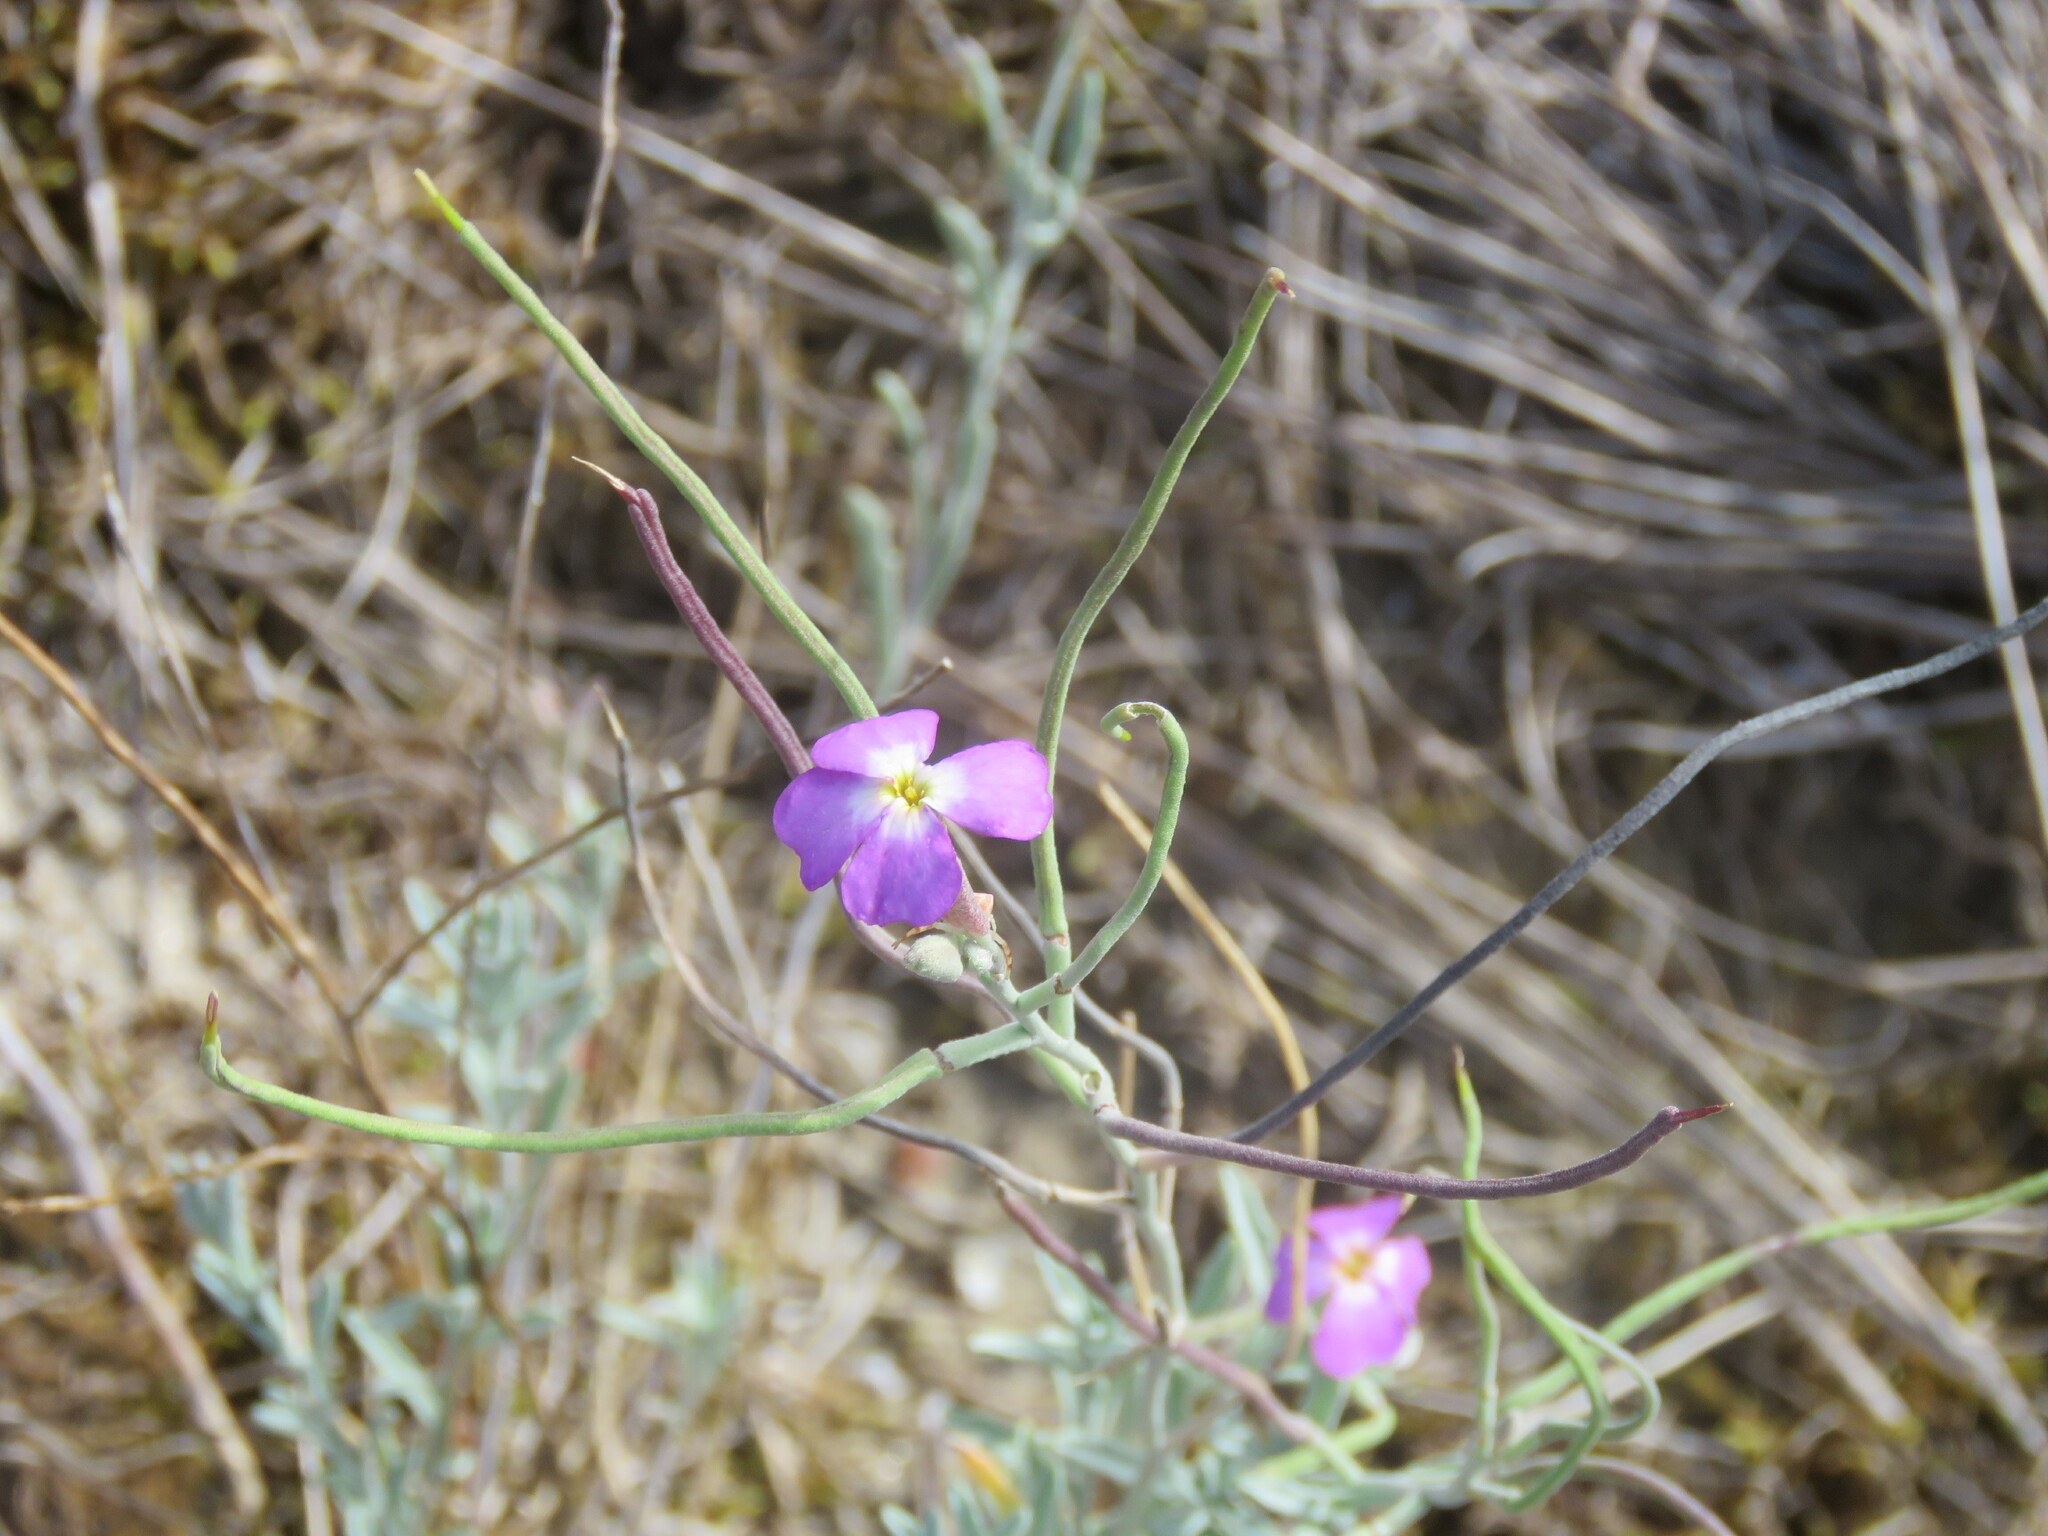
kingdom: Plantae
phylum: Tracheophyta
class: Magnoliopsida
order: Brassicales
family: Brassicaceae
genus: Marcuskochia
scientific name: Marcuskochia littorea
